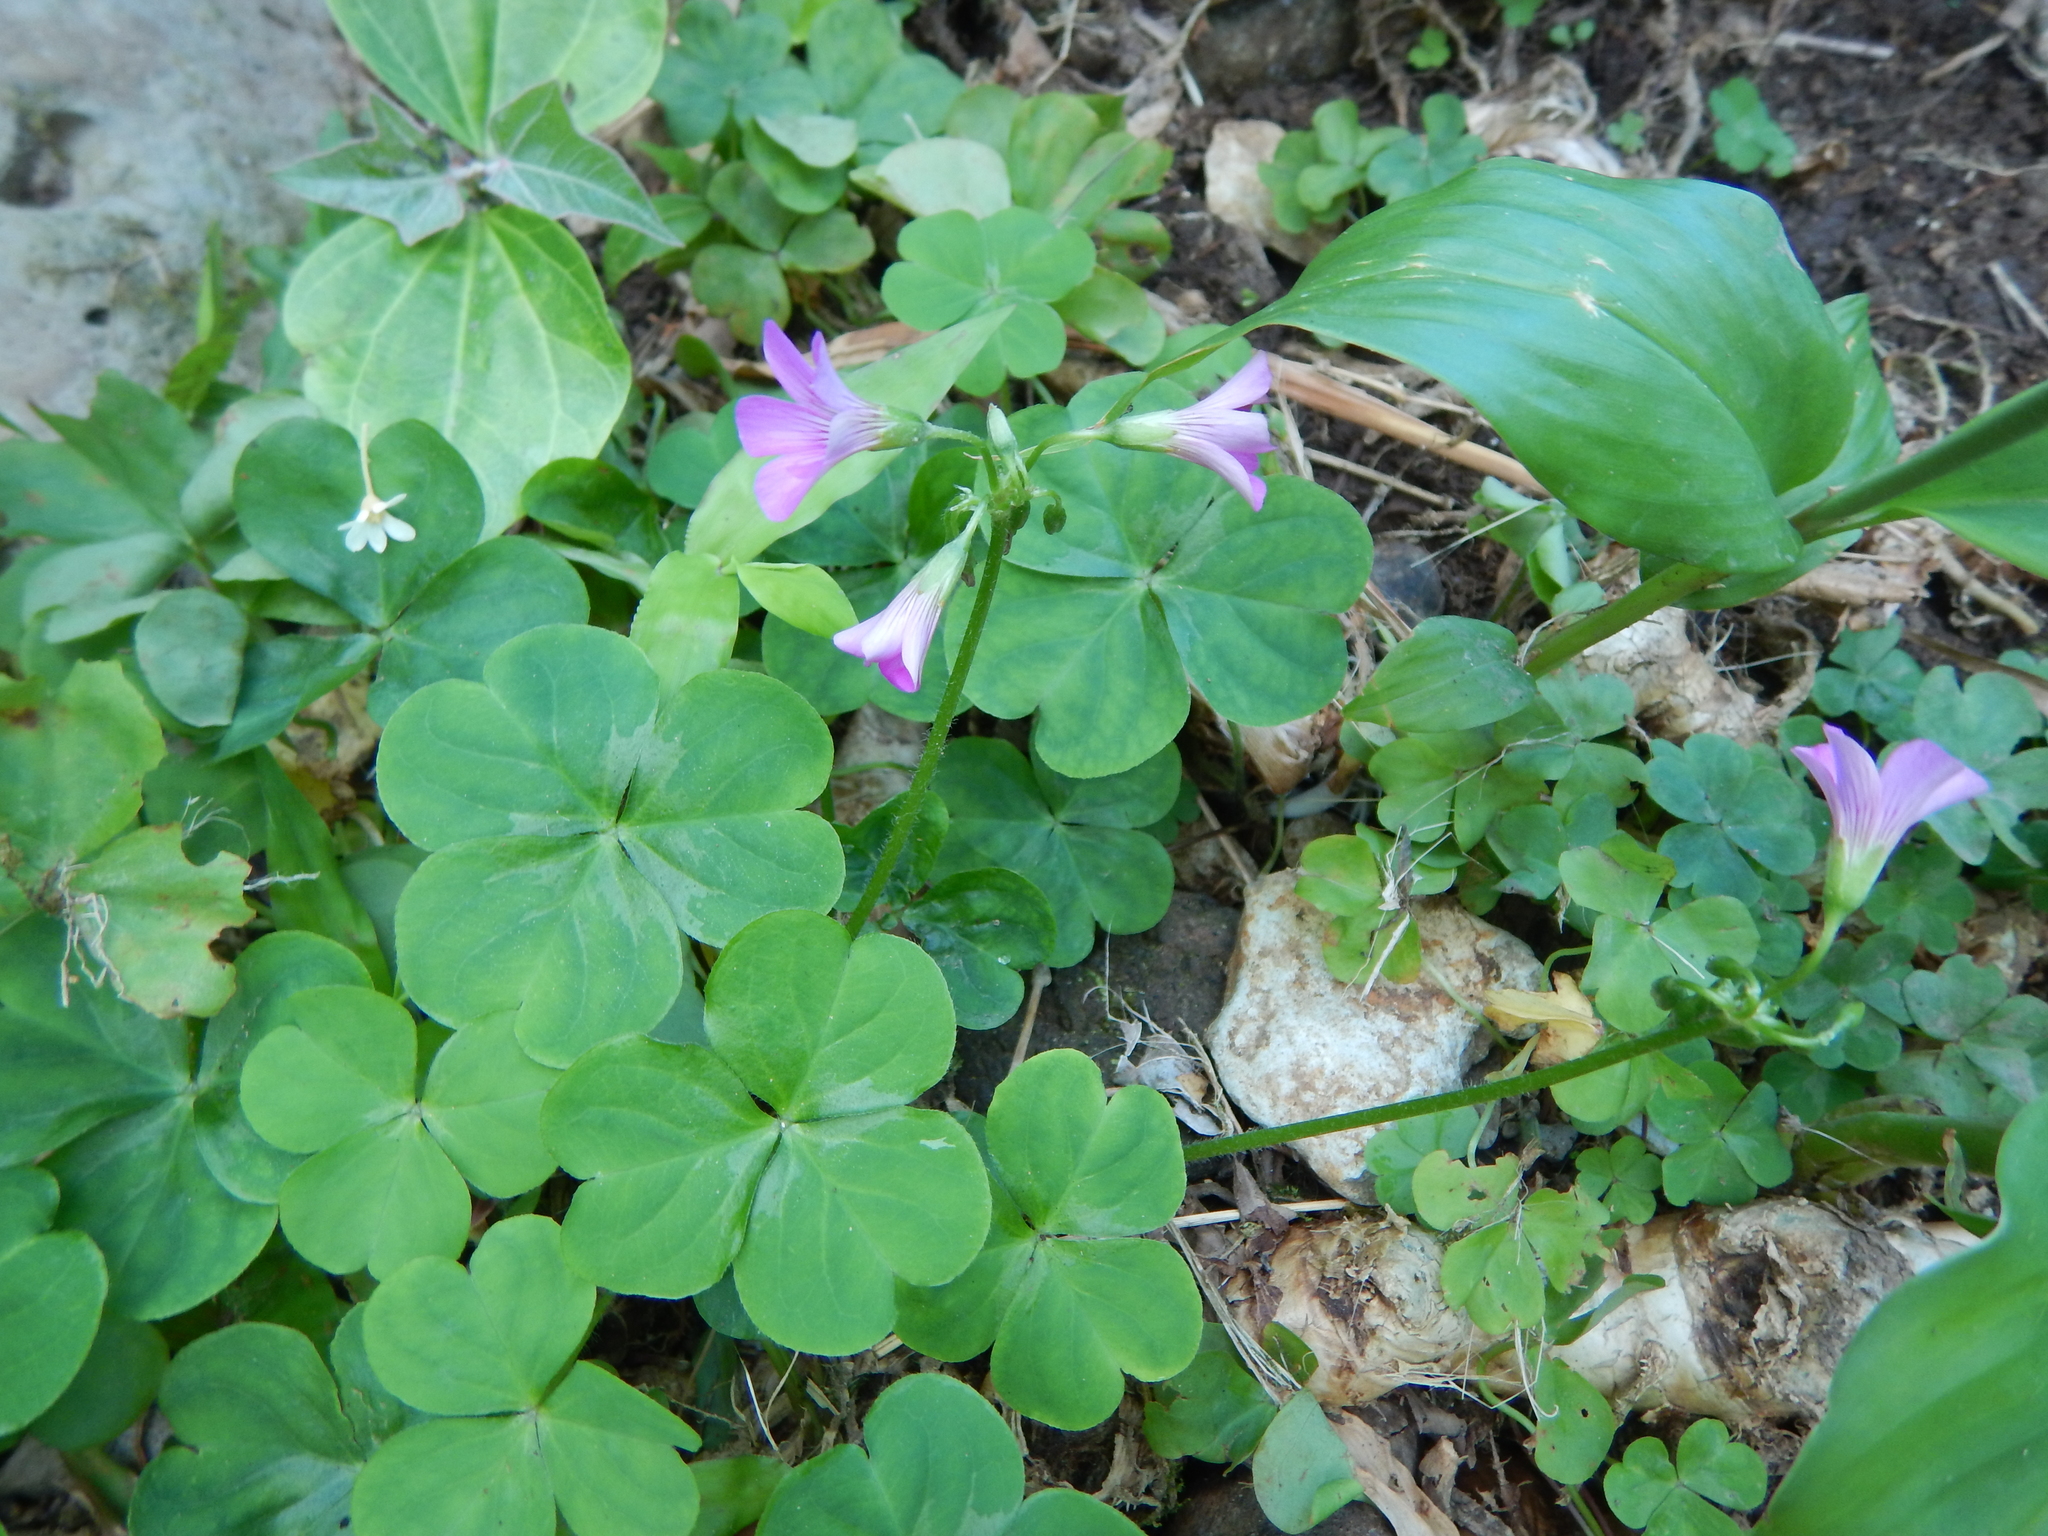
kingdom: Plantae
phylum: Tracheophyta
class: Magnoliopsida
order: Oxalidales
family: Oxalidaceae
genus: Oxalis
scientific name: Oxalis debilis
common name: Large-flowered pink-sorrel
